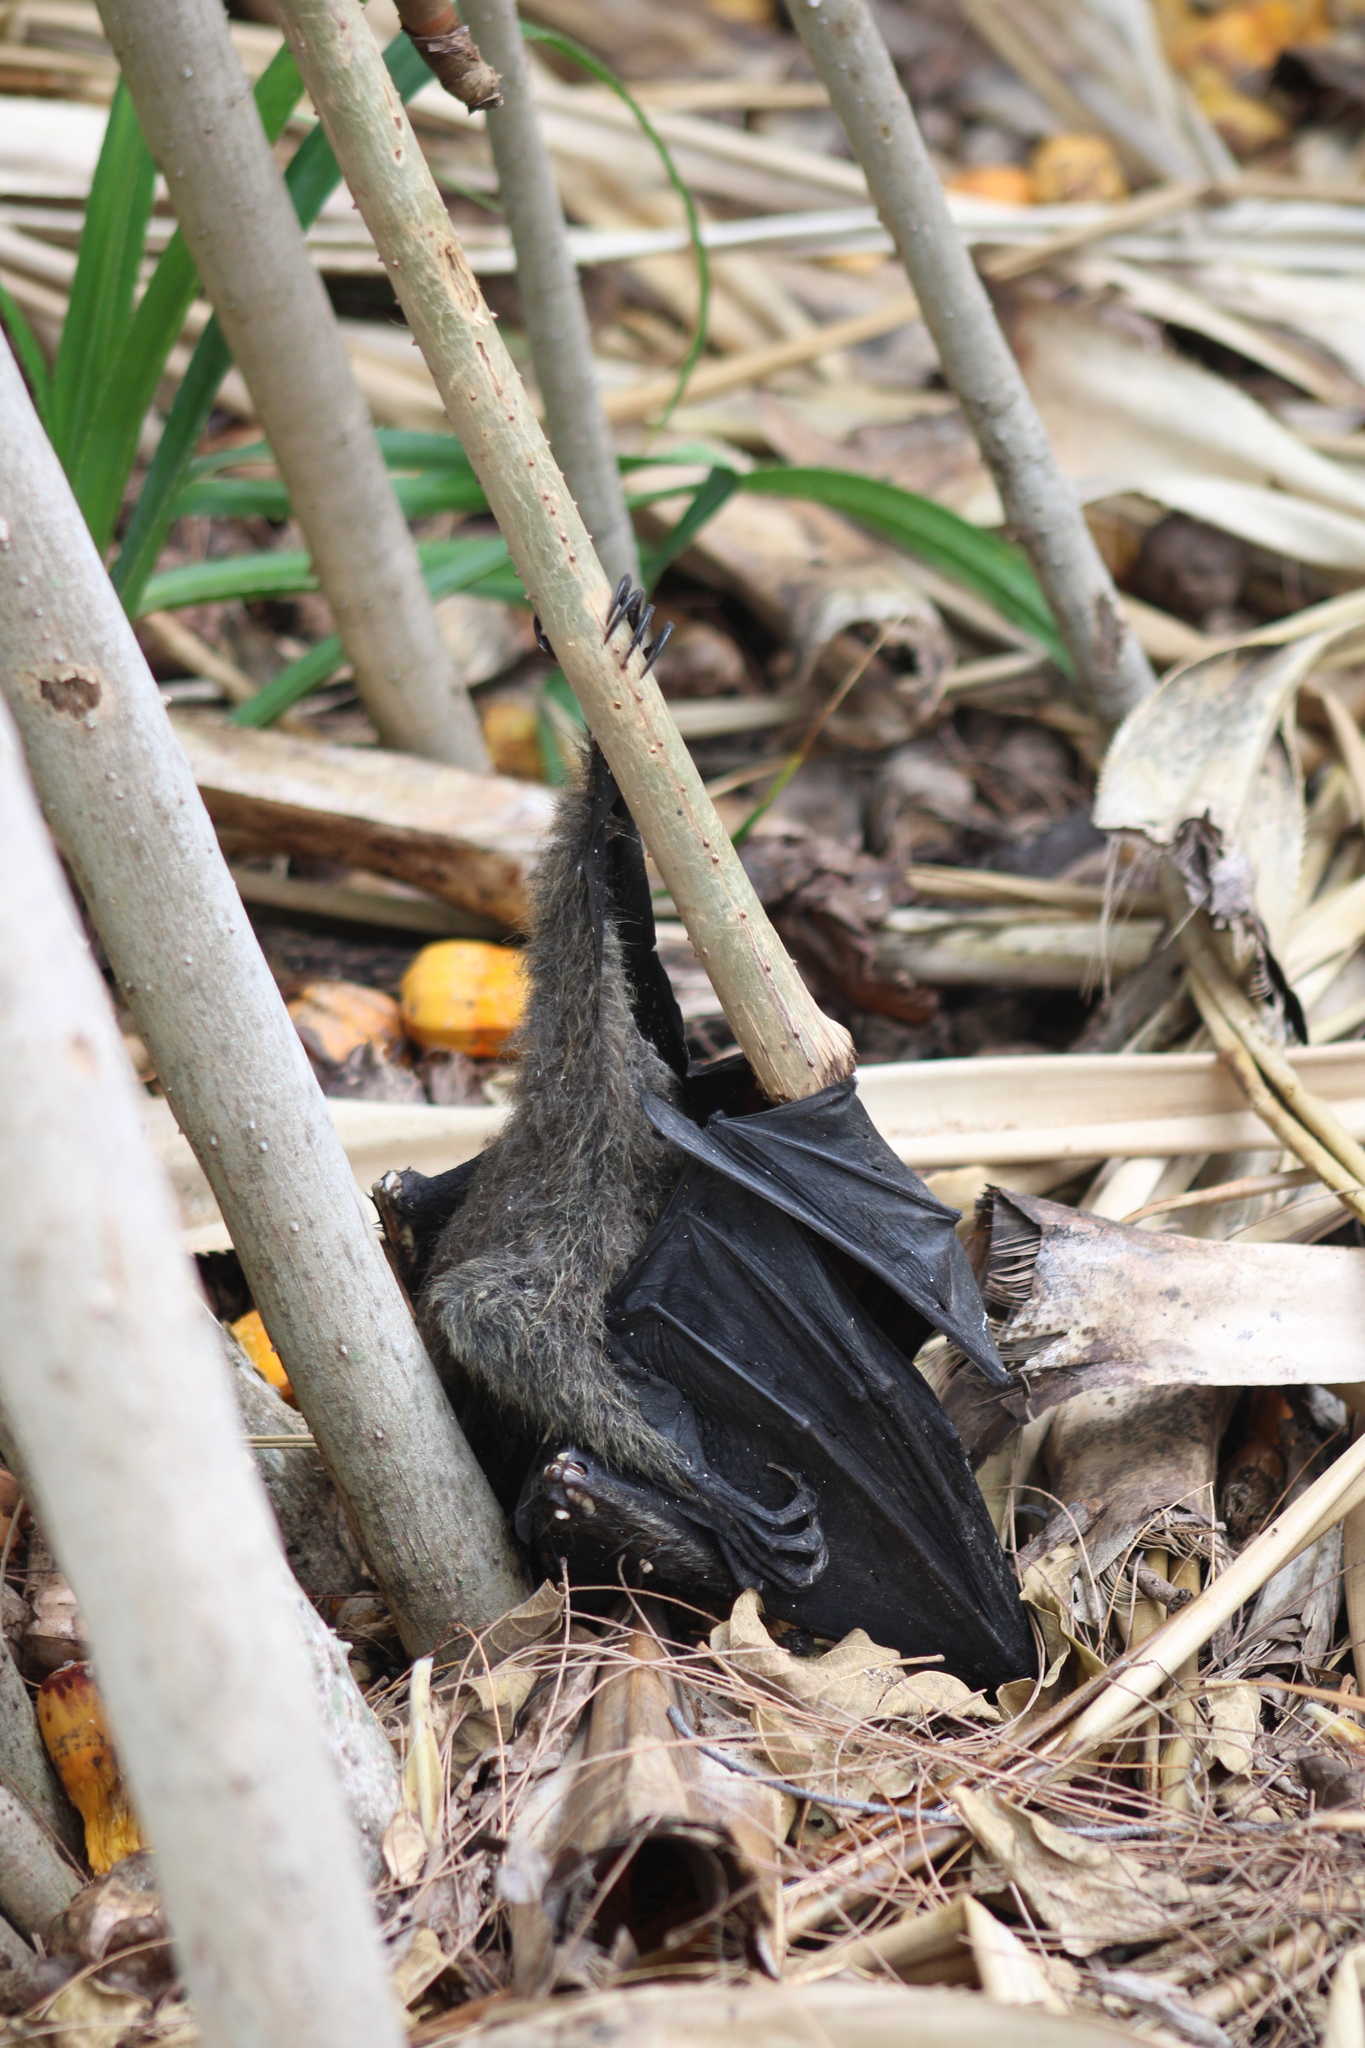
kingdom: Animalia
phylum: Chordata
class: Mammalia
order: Chiroptera
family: Pteropodidae
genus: Pteropus
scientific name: Pteropus poliocephalus
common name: Gray-headed flying fox
